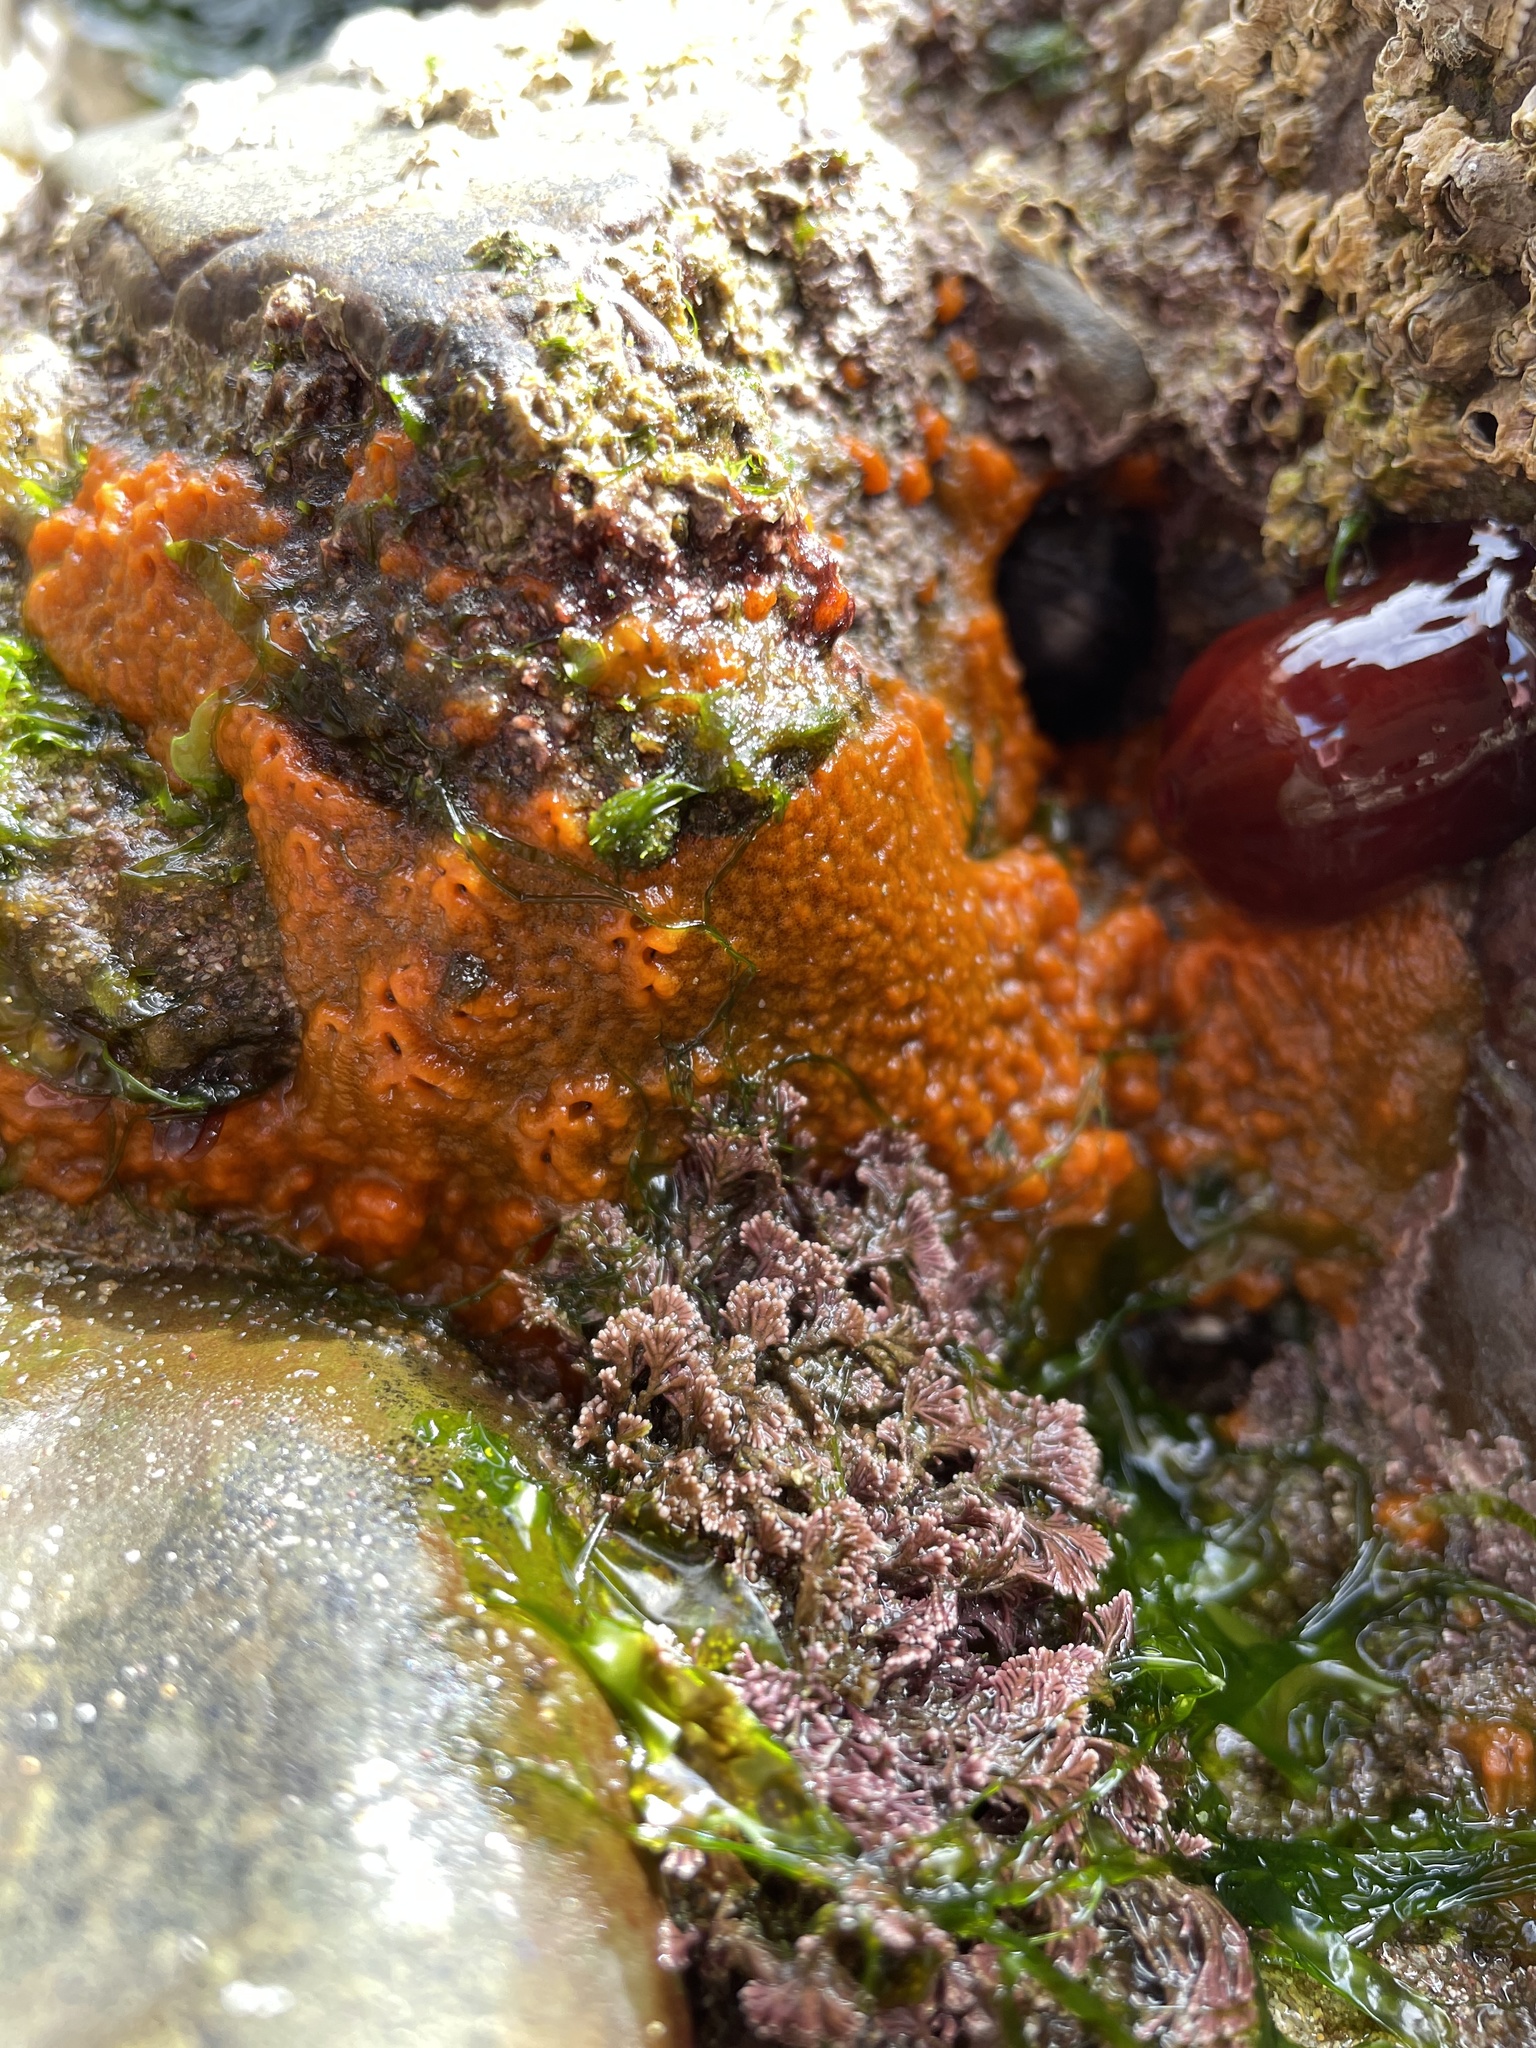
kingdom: Animalia
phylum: Porifera
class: Demospongiae
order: Suberitida
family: Halichondriidae
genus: Hymeniacidon
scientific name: Hymeniacidon perlevis
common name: Crumb-of-bread sponge
